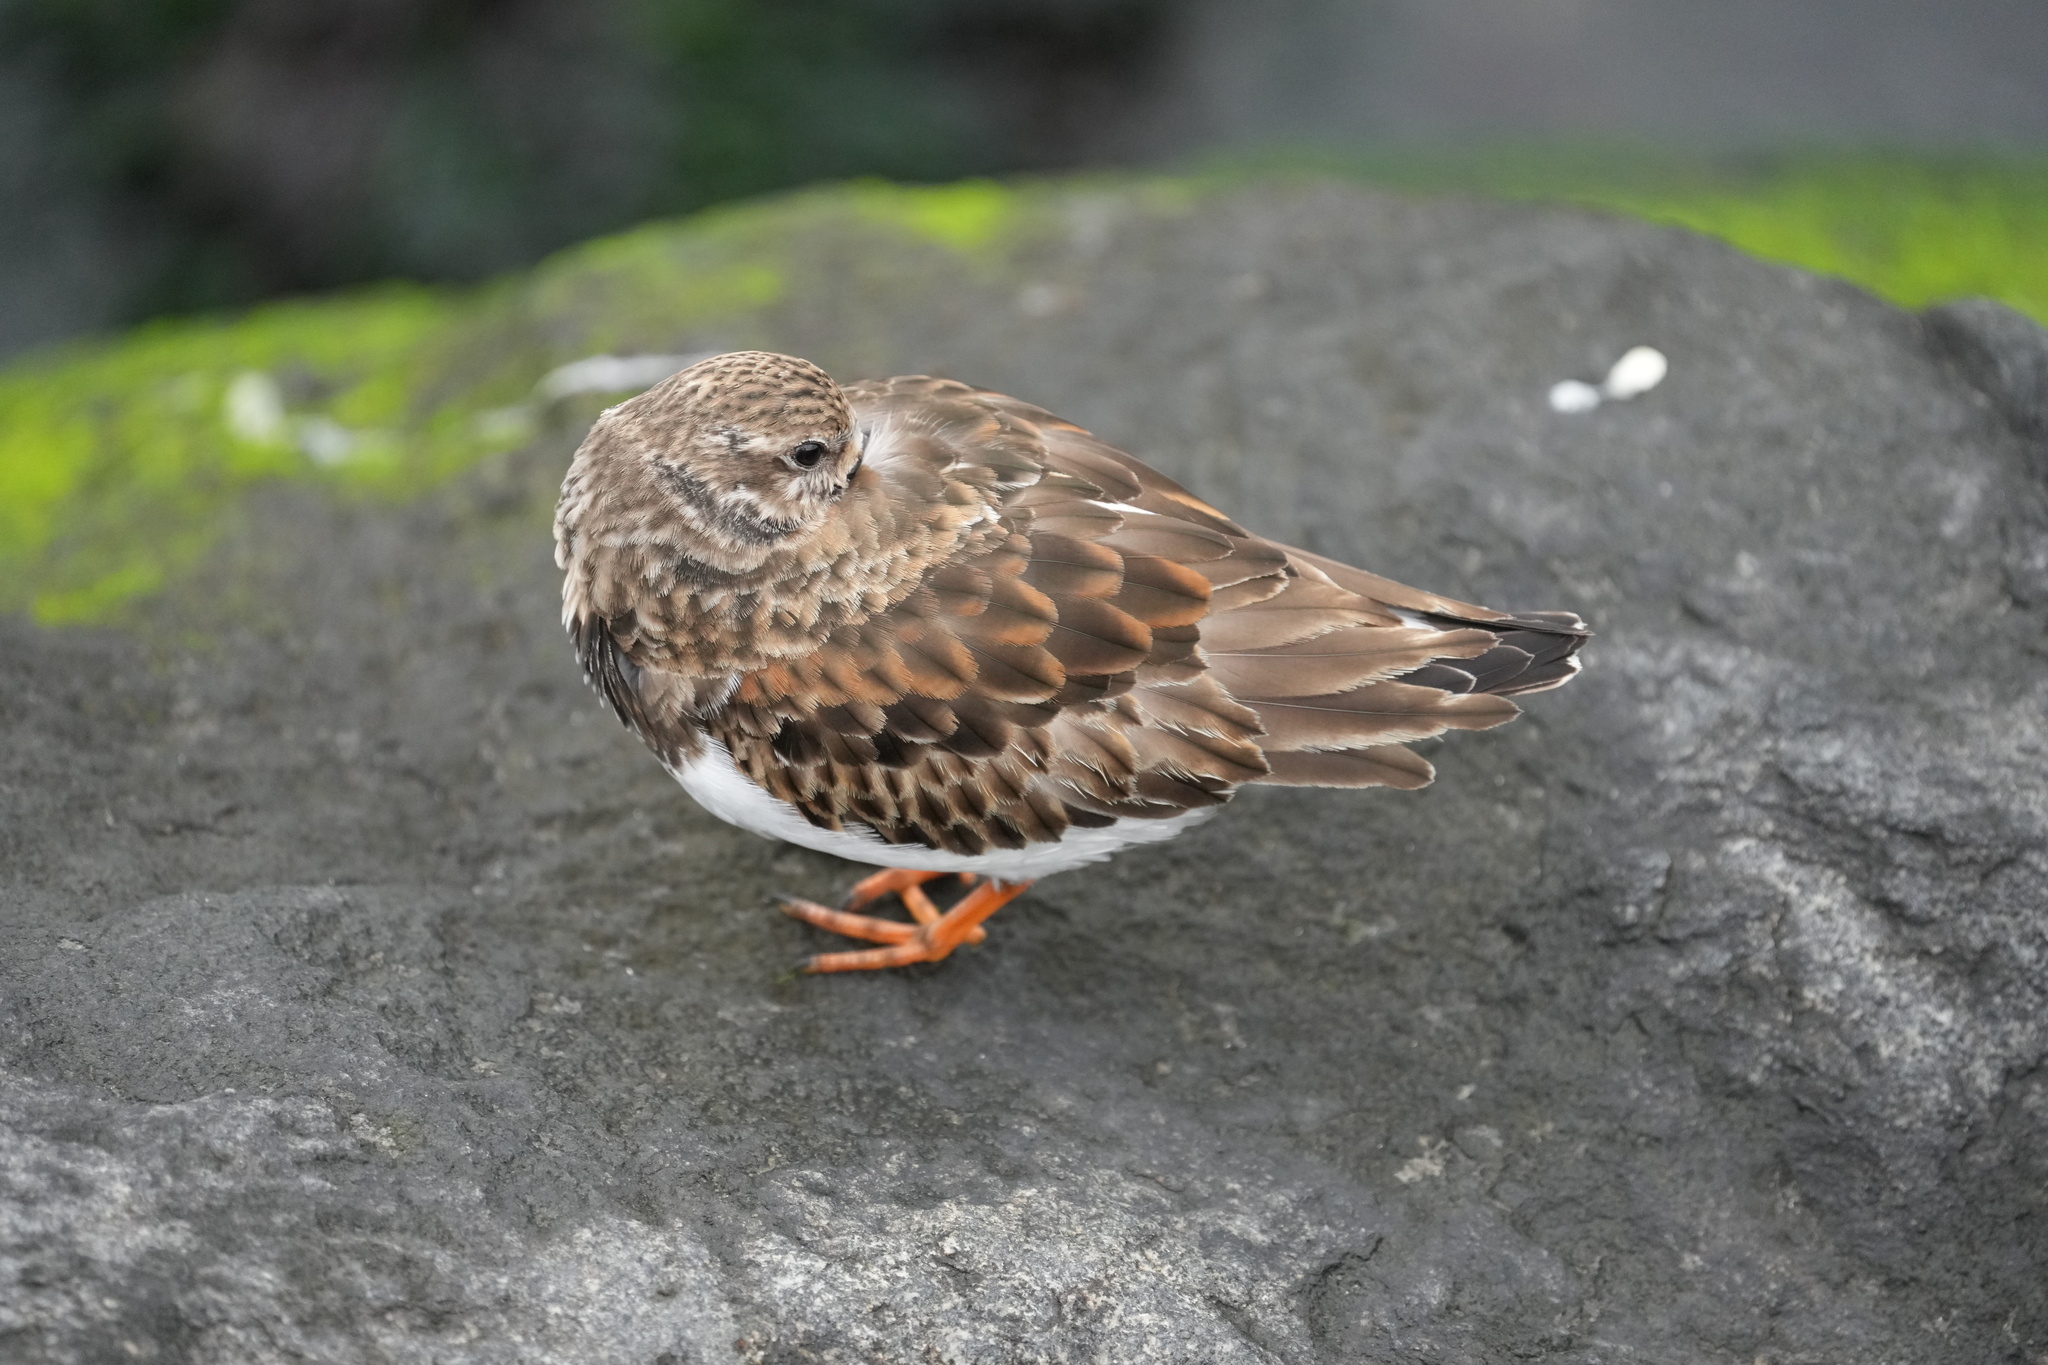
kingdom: Animalia
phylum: Chordata
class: Aves
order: Charadriiformes
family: Scolopacidae
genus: Arenaria
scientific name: Arenaria interpres
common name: Ruddy turnstone
